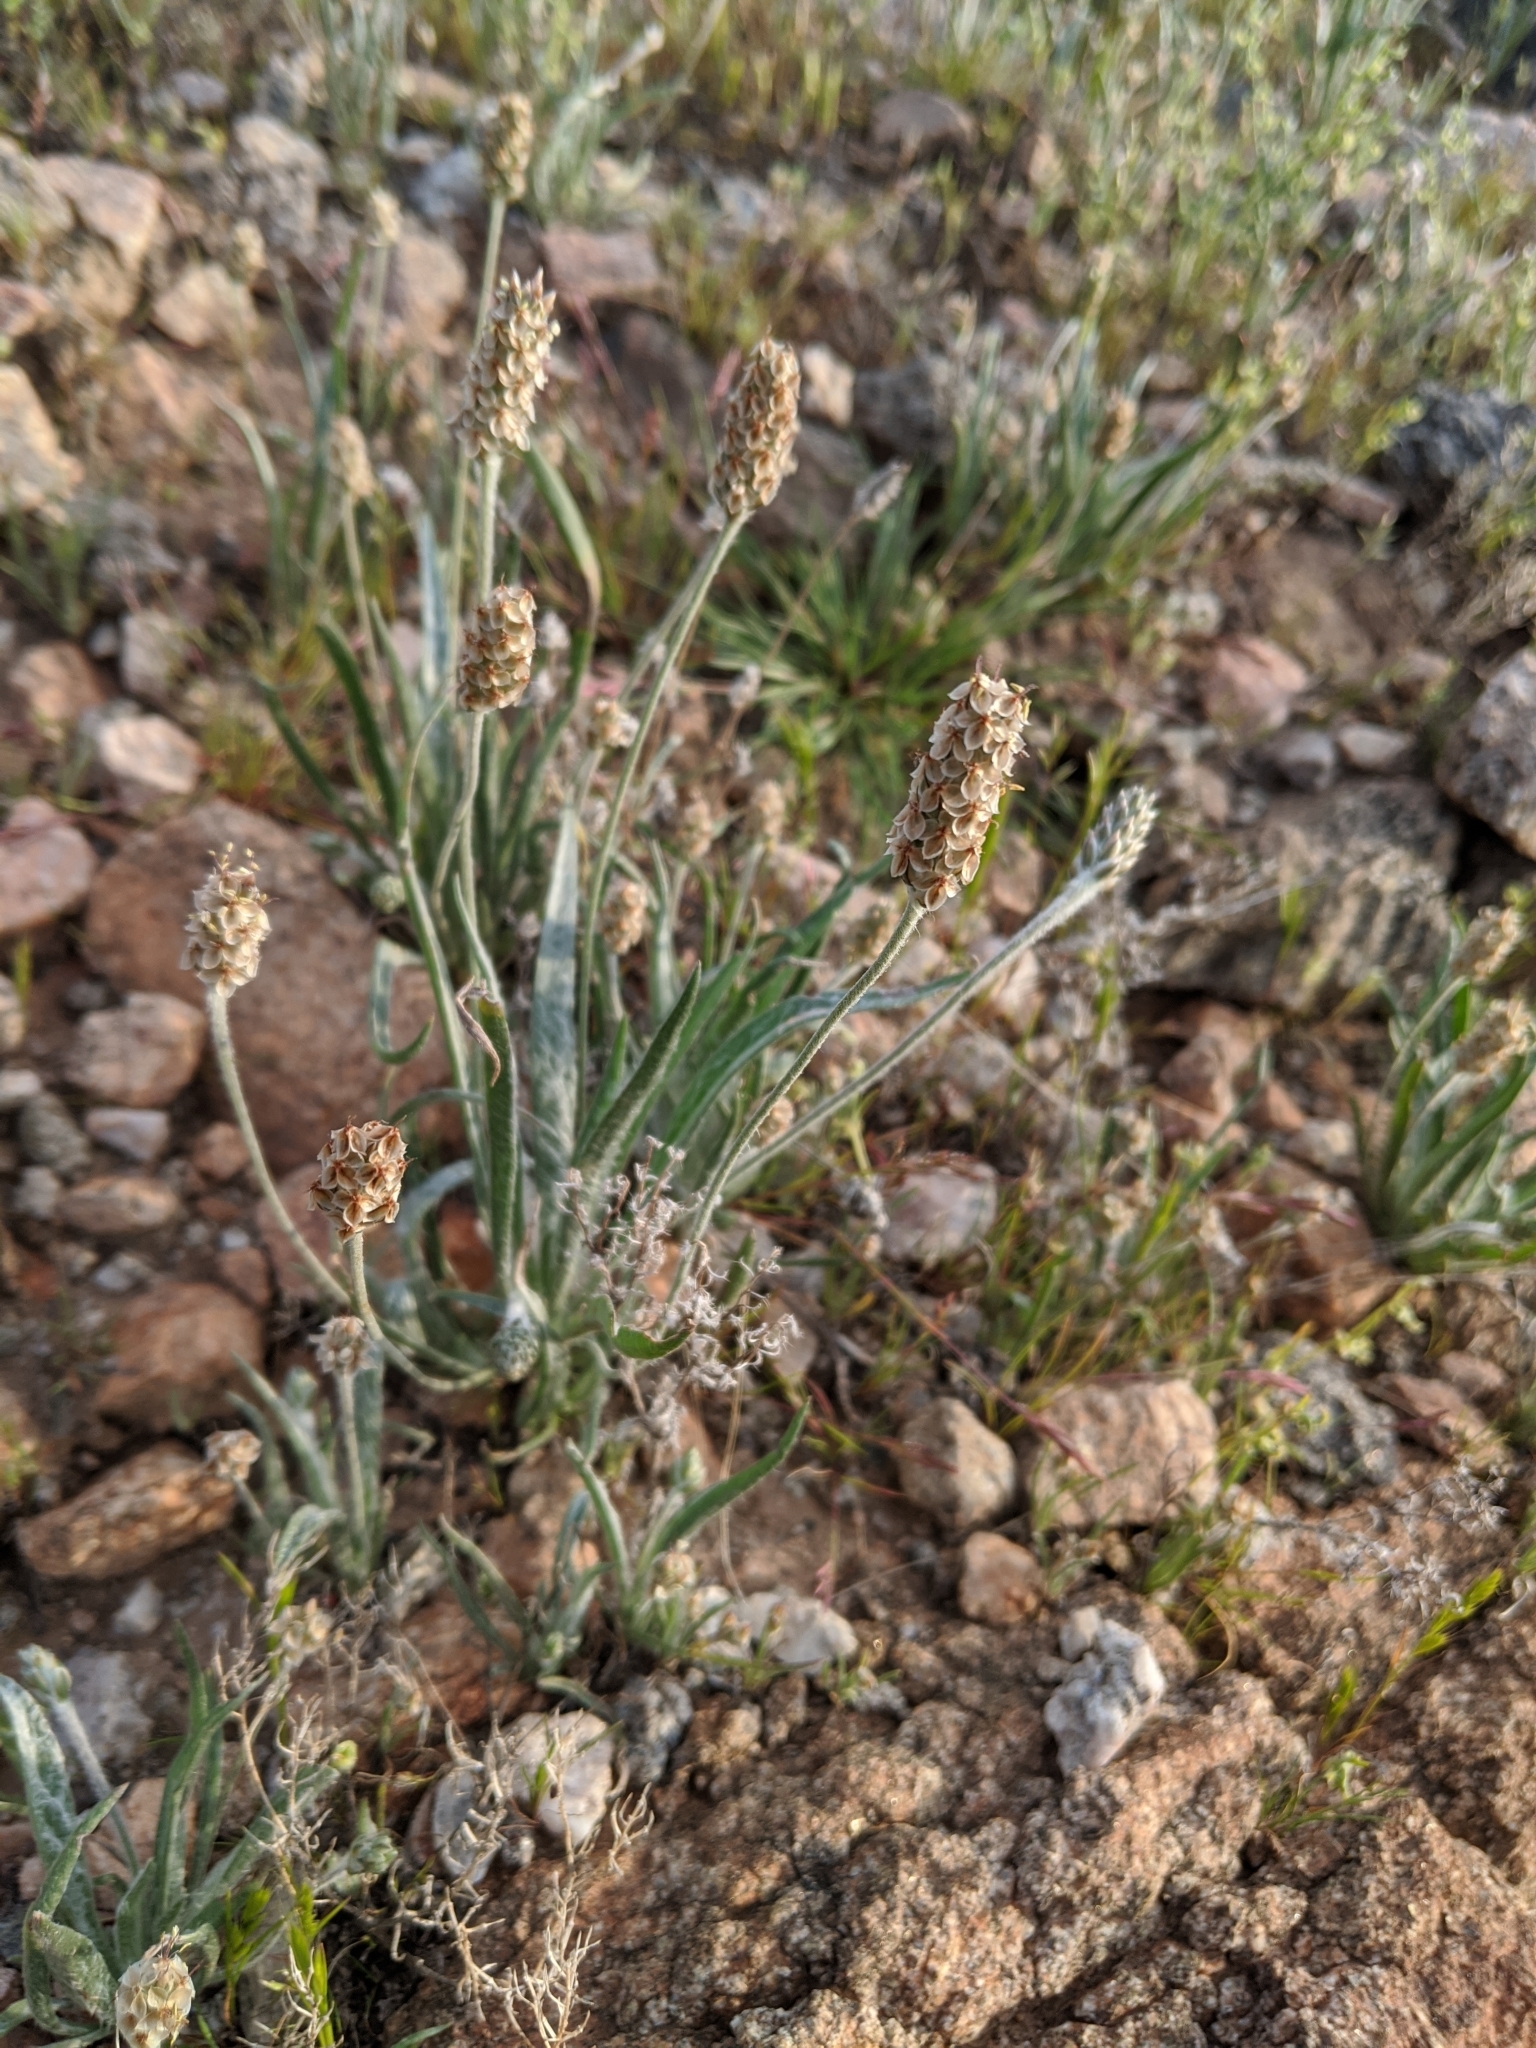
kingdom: Plantae
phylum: Tracheophyta
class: Magnoliopsida
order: Lamiales
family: Plantaginaceae
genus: Plantago
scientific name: Plantago ovata
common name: Blond plantain
